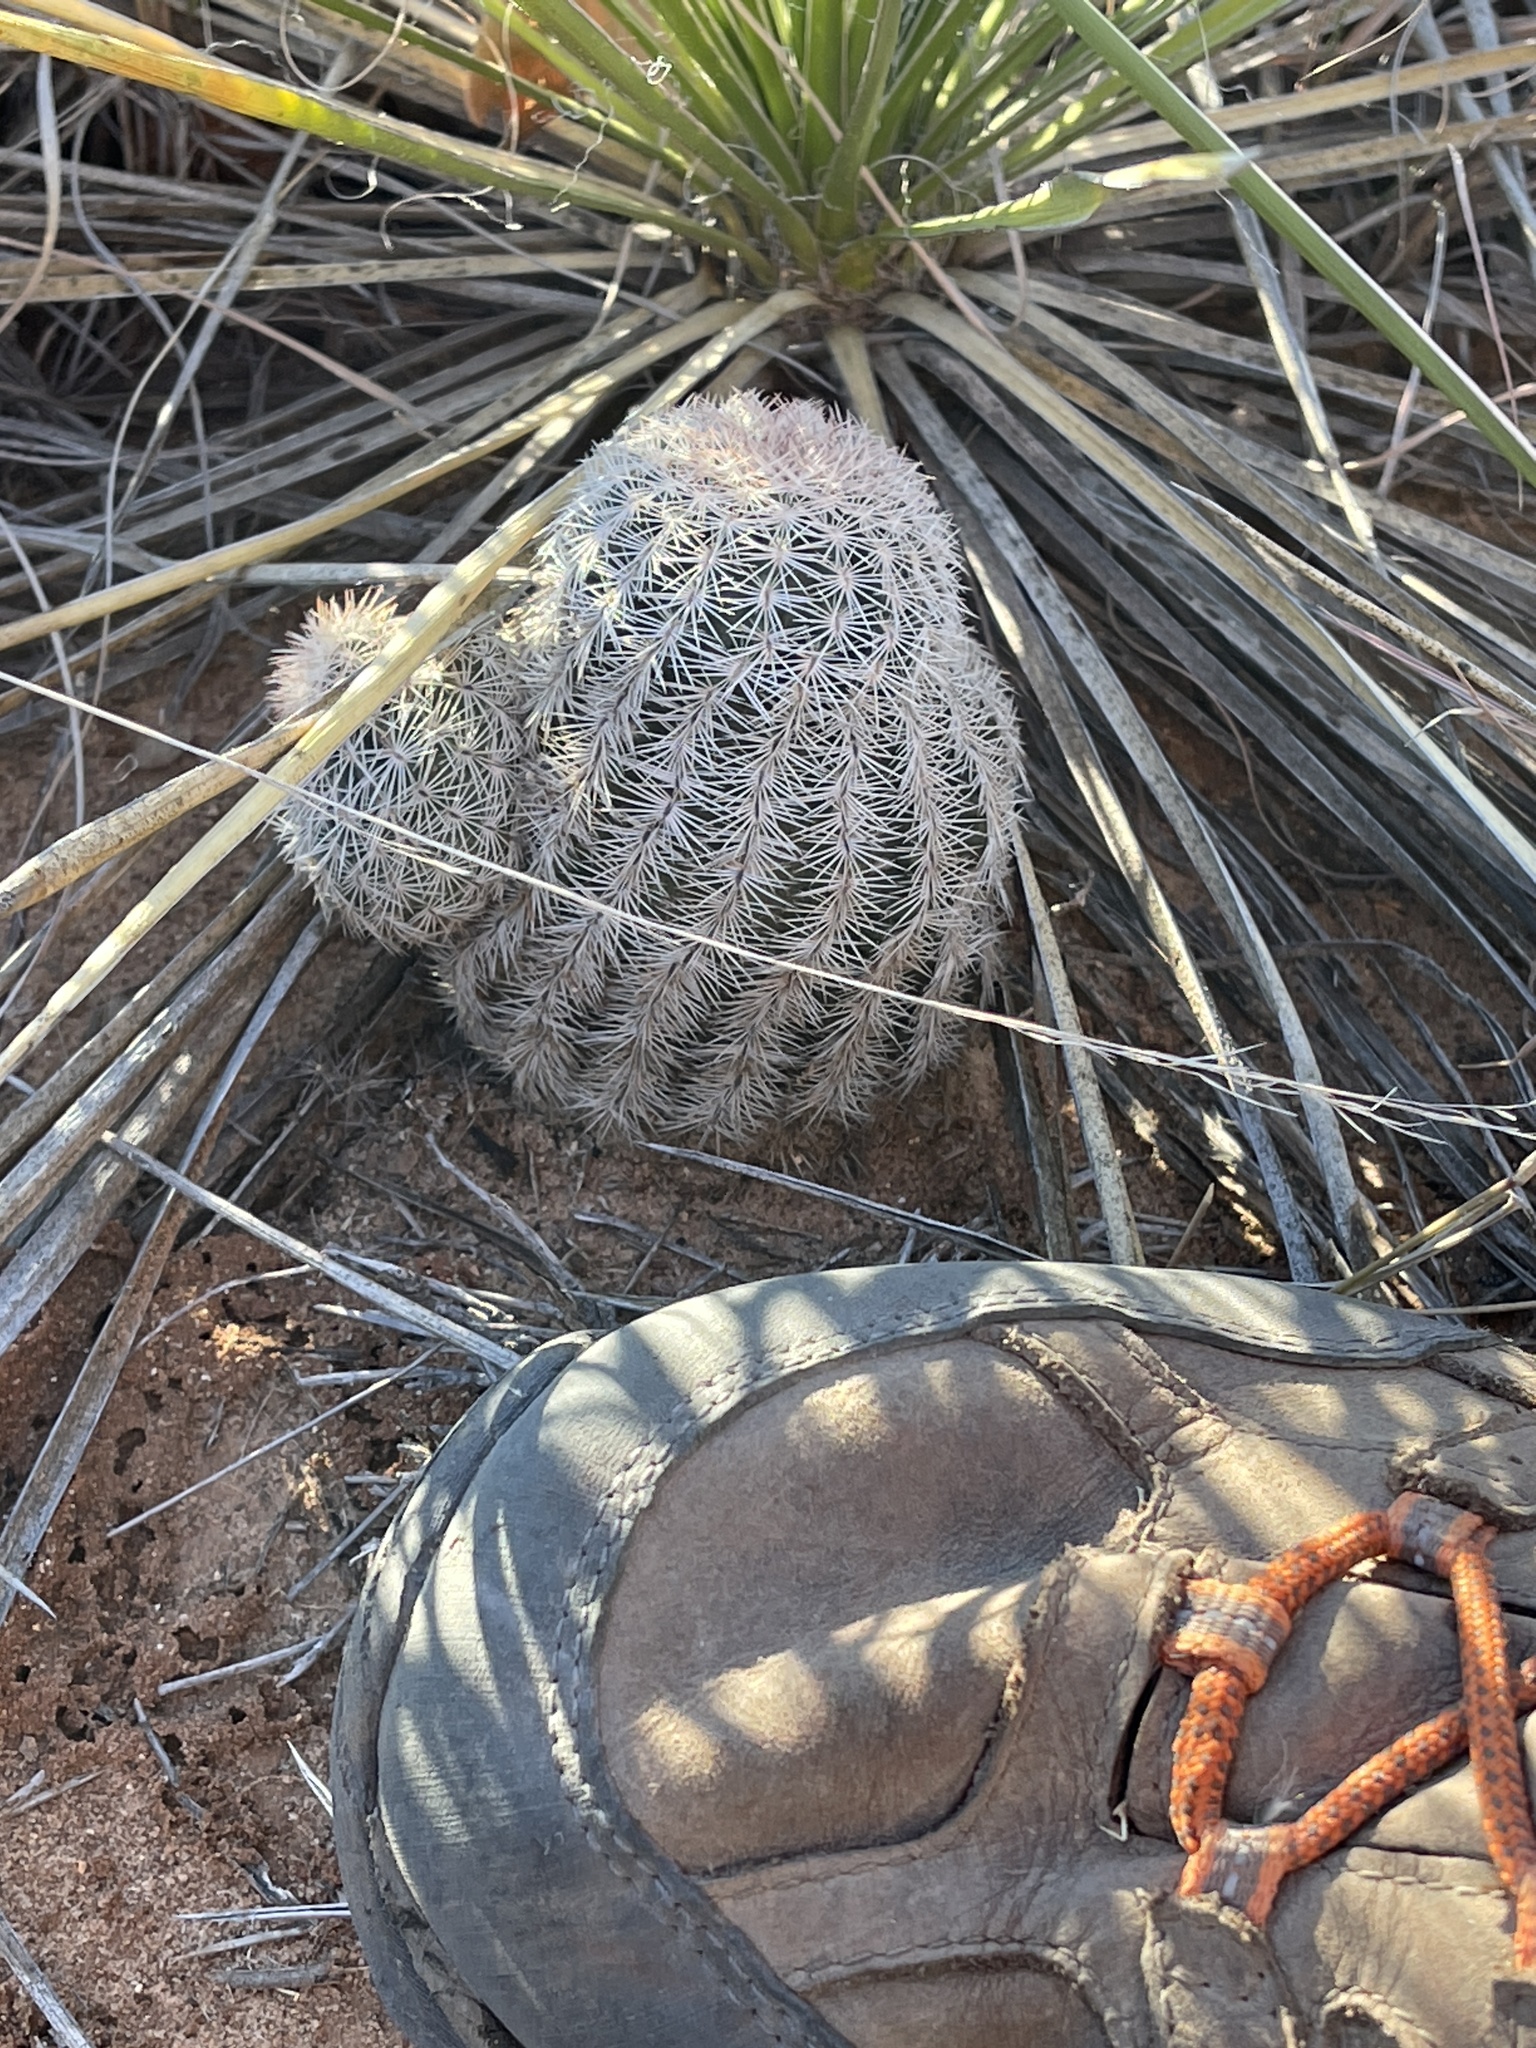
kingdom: Plantae
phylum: Tracheophyta
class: Magnoliopsida
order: Caryophyllales
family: Cactaceae
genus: Echinocereus
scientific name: Echinocereus reichenbachii
